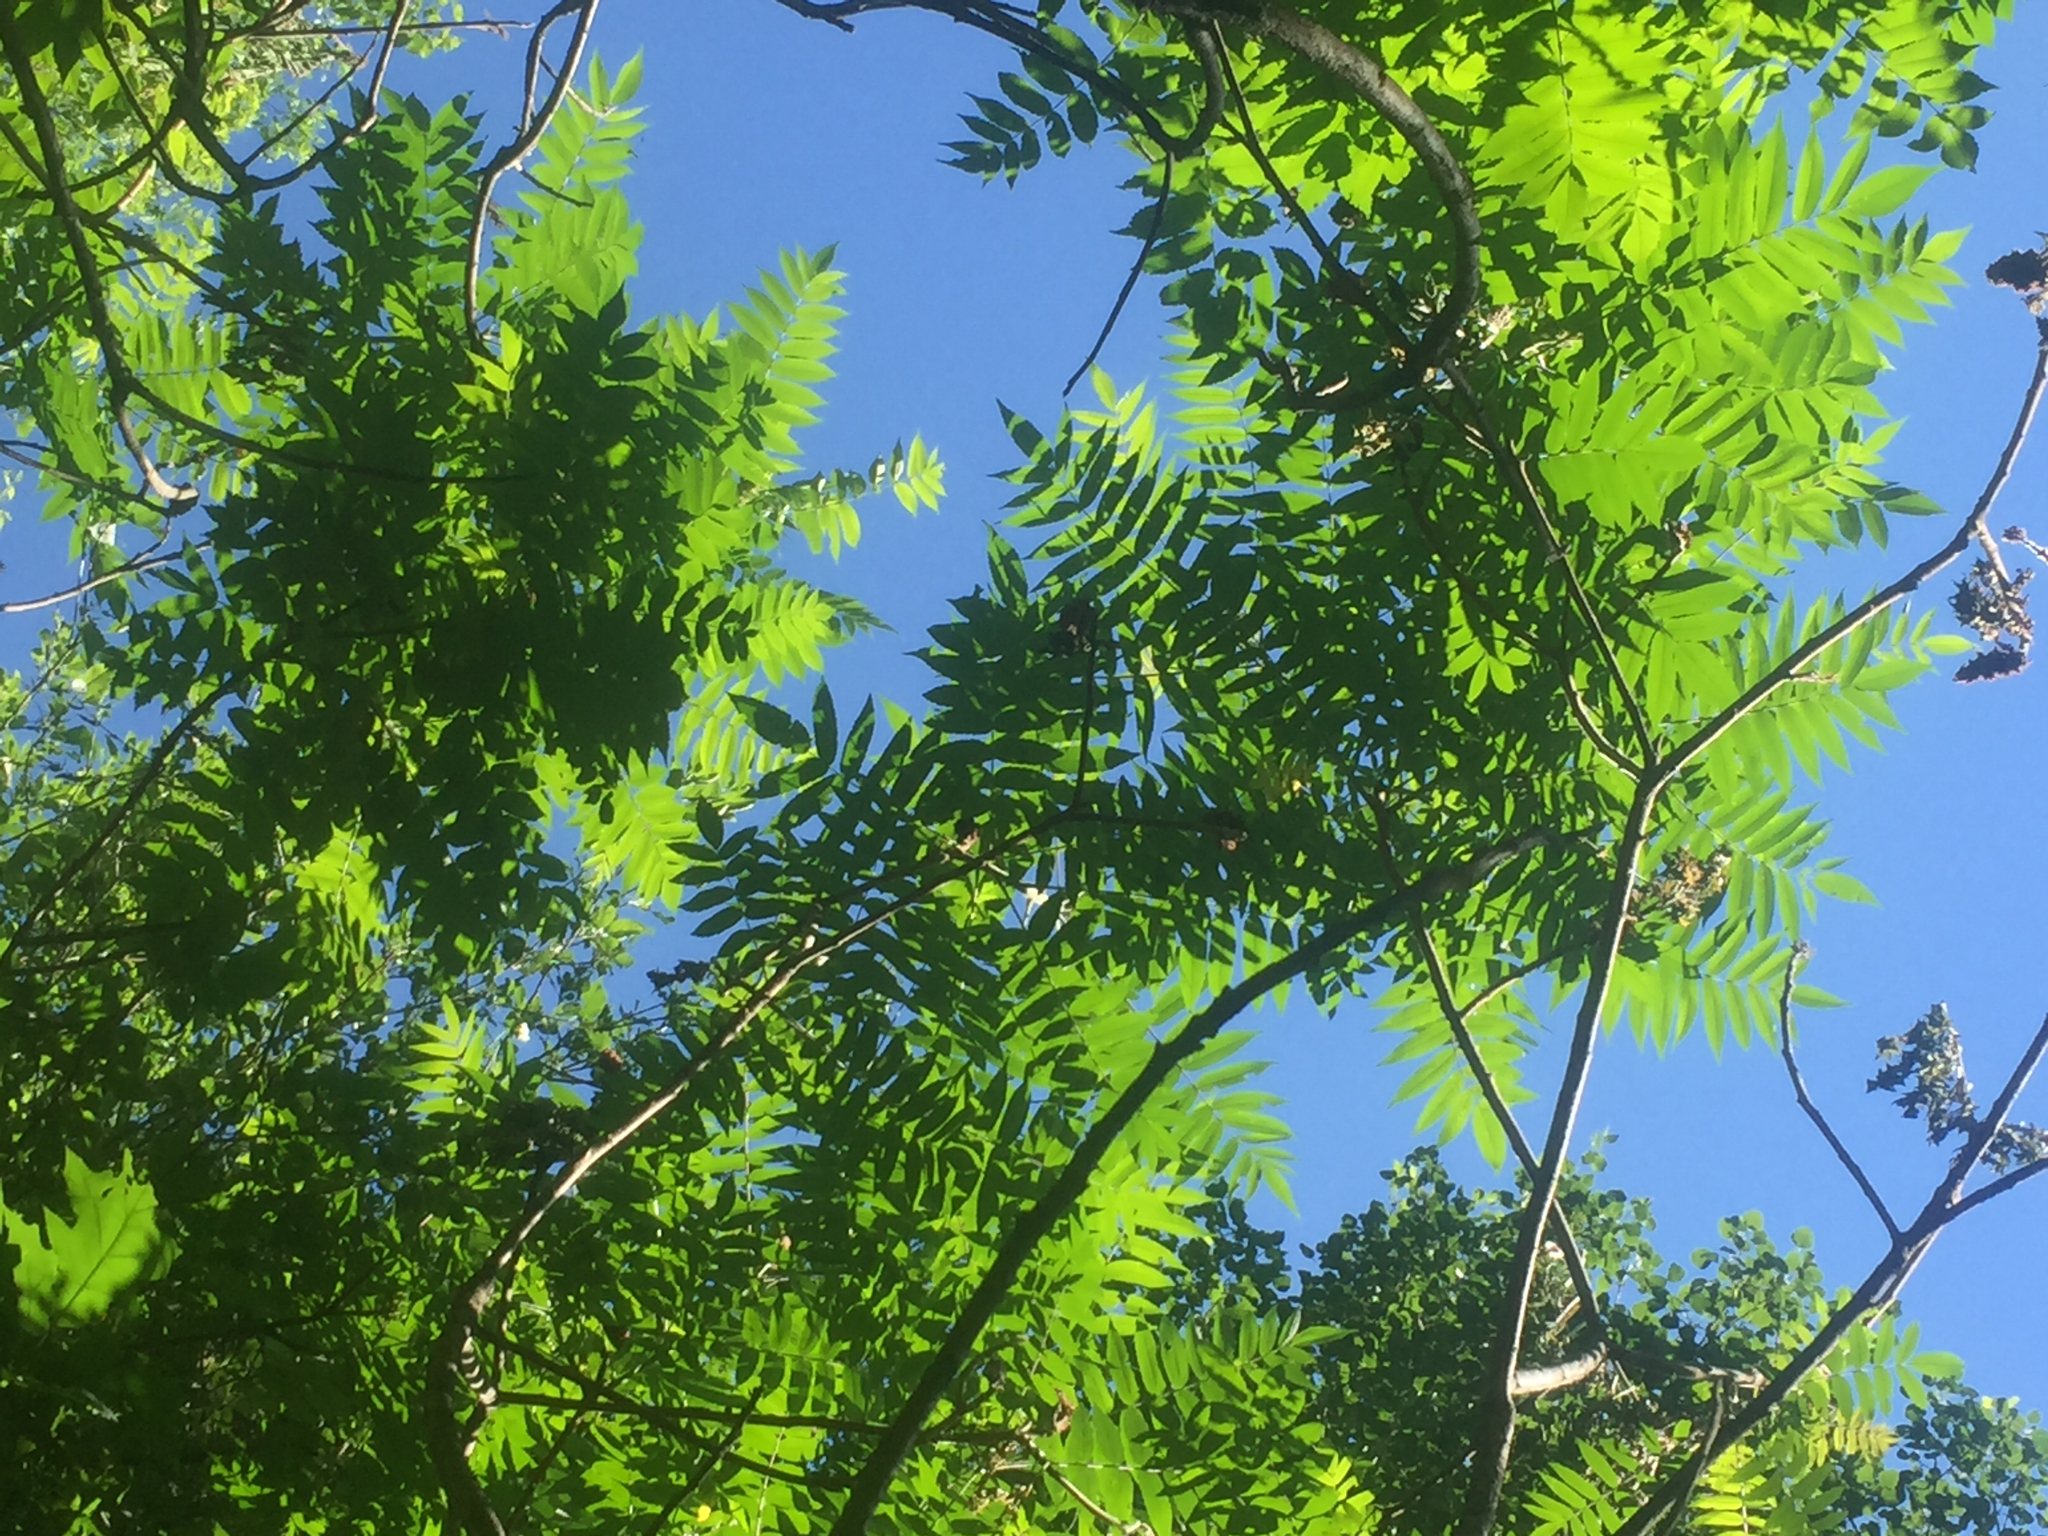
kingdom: Plantae
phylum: Tracheophyta
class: Magnoliopsida
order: Sapindales
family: Anacardiaceae
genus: Rhus
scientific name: Rhus typhina
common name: Staghorn sumac
